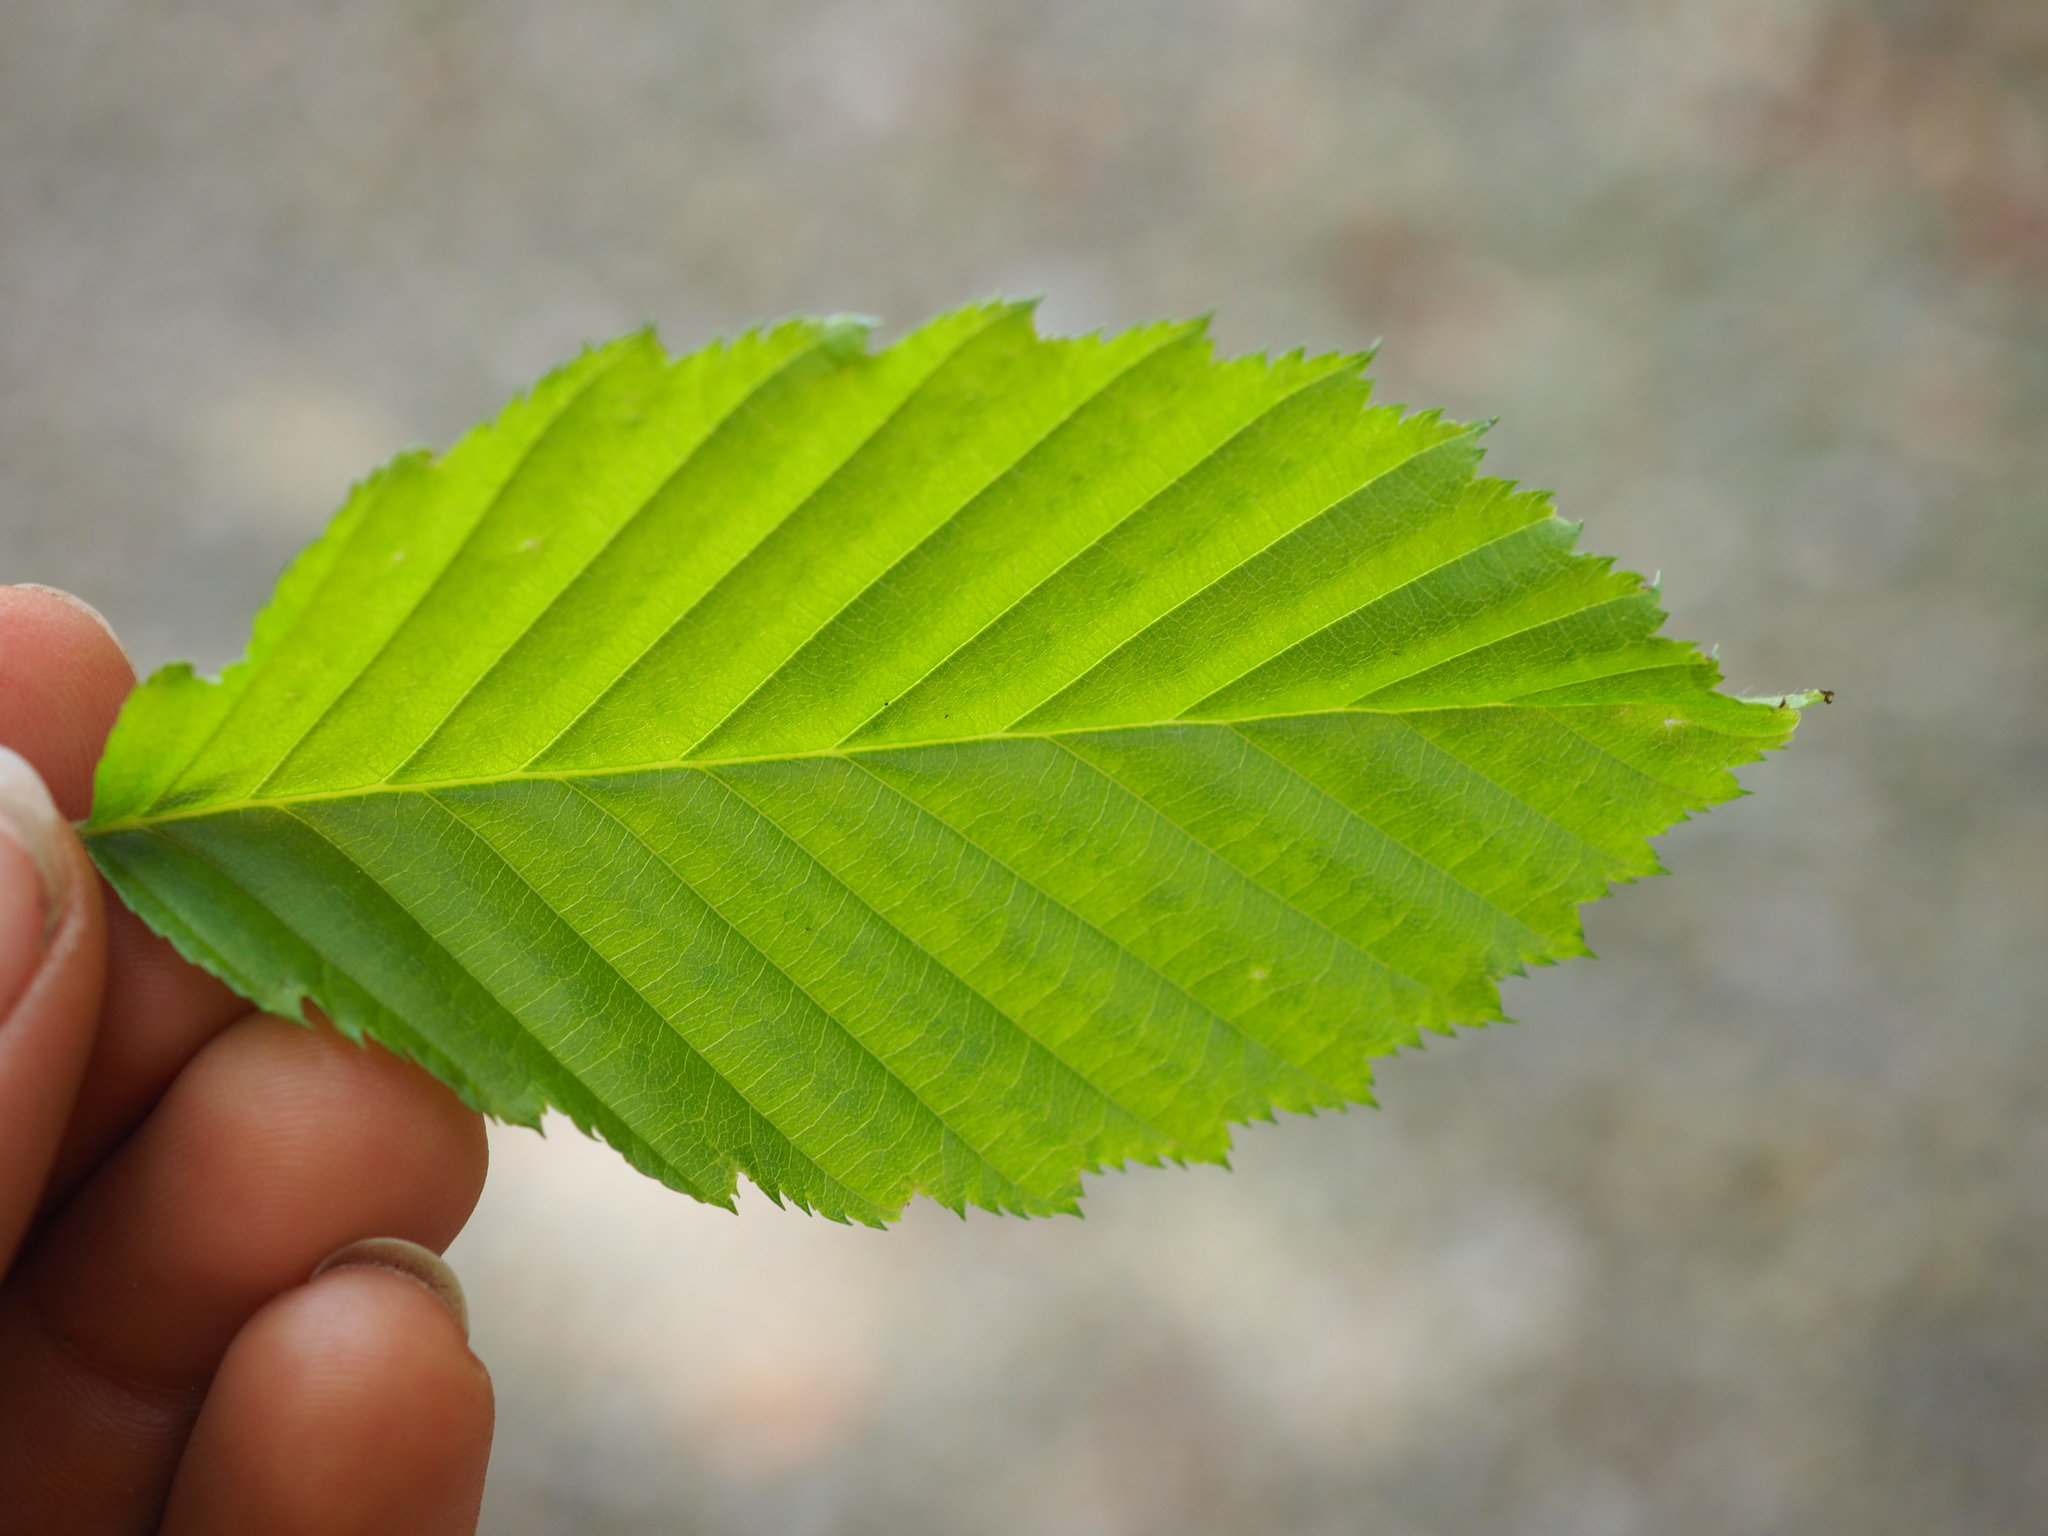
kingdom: Plantae
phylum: Tracheophyta
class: Magnoliopsida
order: Fagales
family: Betulaceae
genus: Carpinus
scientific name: Carpinus betulus
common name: Hornbeam
